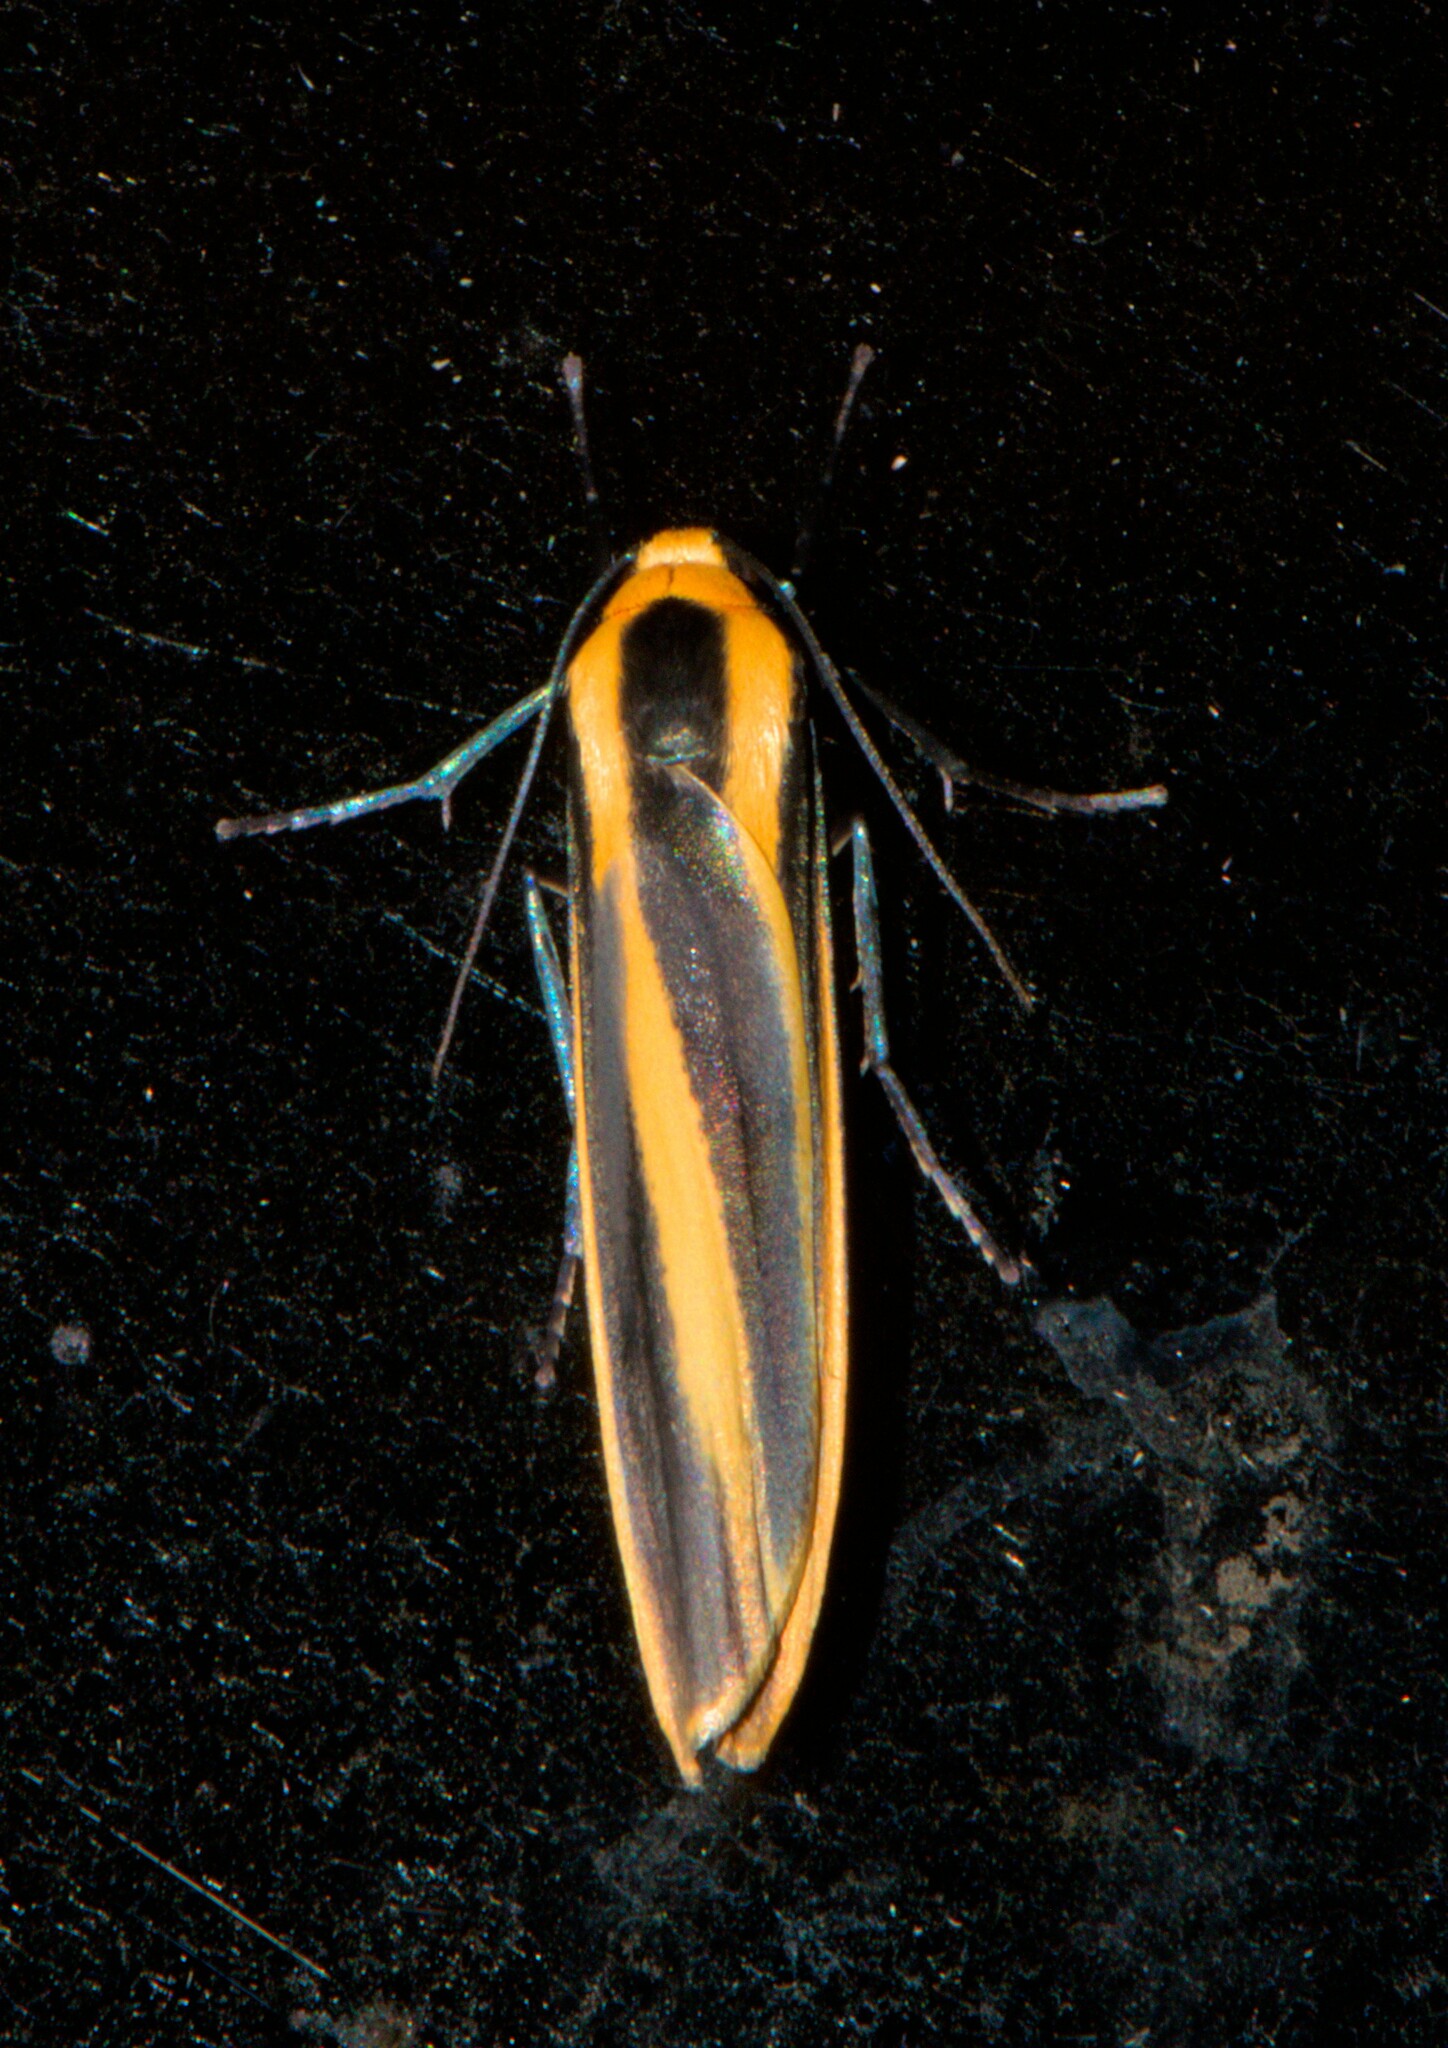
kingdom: Animalia
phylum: Arthropoda
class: Insecta
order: Lepidoptera
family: Erebidae
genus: Chrysorabdia
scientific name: Chrysorabdia viridata
